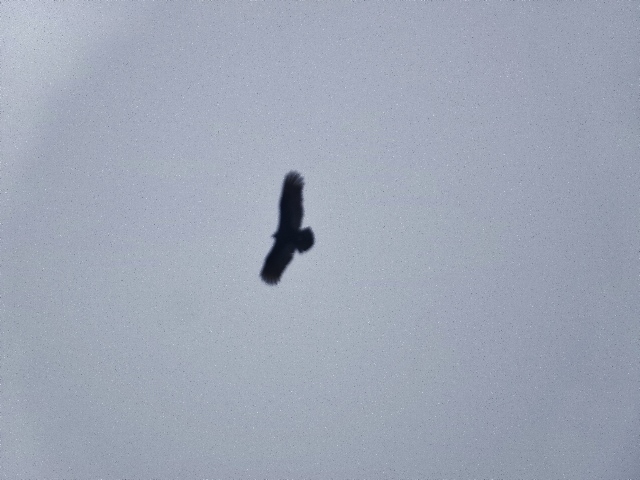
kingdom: Animalia
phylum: Chordata
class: Aves
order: Accipitriformes
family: Cathartidae
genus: Cathartes
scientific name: Cathartes aura
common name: Turkey vulture
